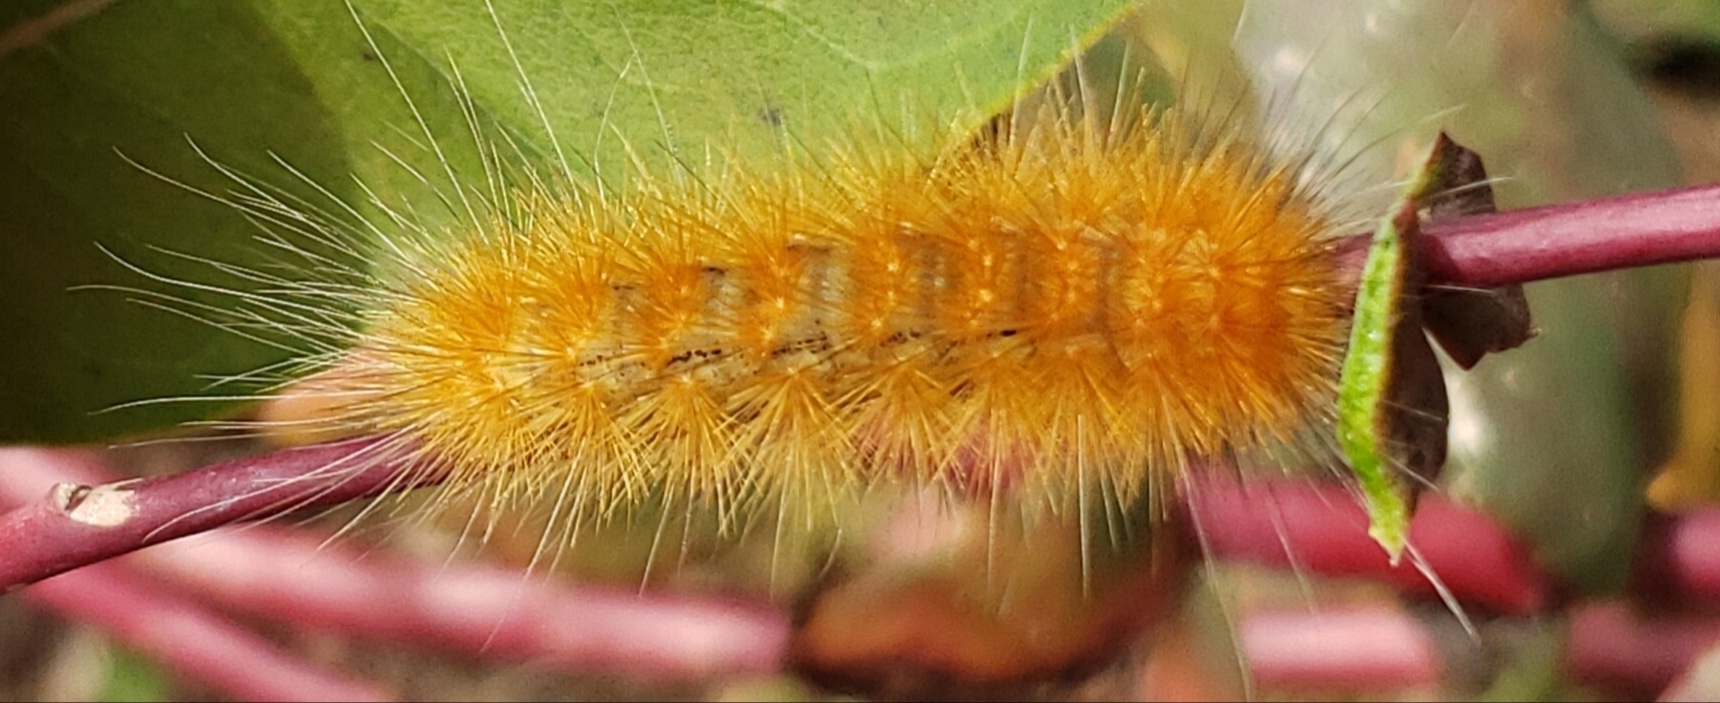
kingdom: Animalia
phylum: Arthropoda
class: Insecta
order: Lepidoptera
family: Erebidae
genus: Spilosoma
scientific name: Spilosoma virginica
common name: Virginia tiger moth
